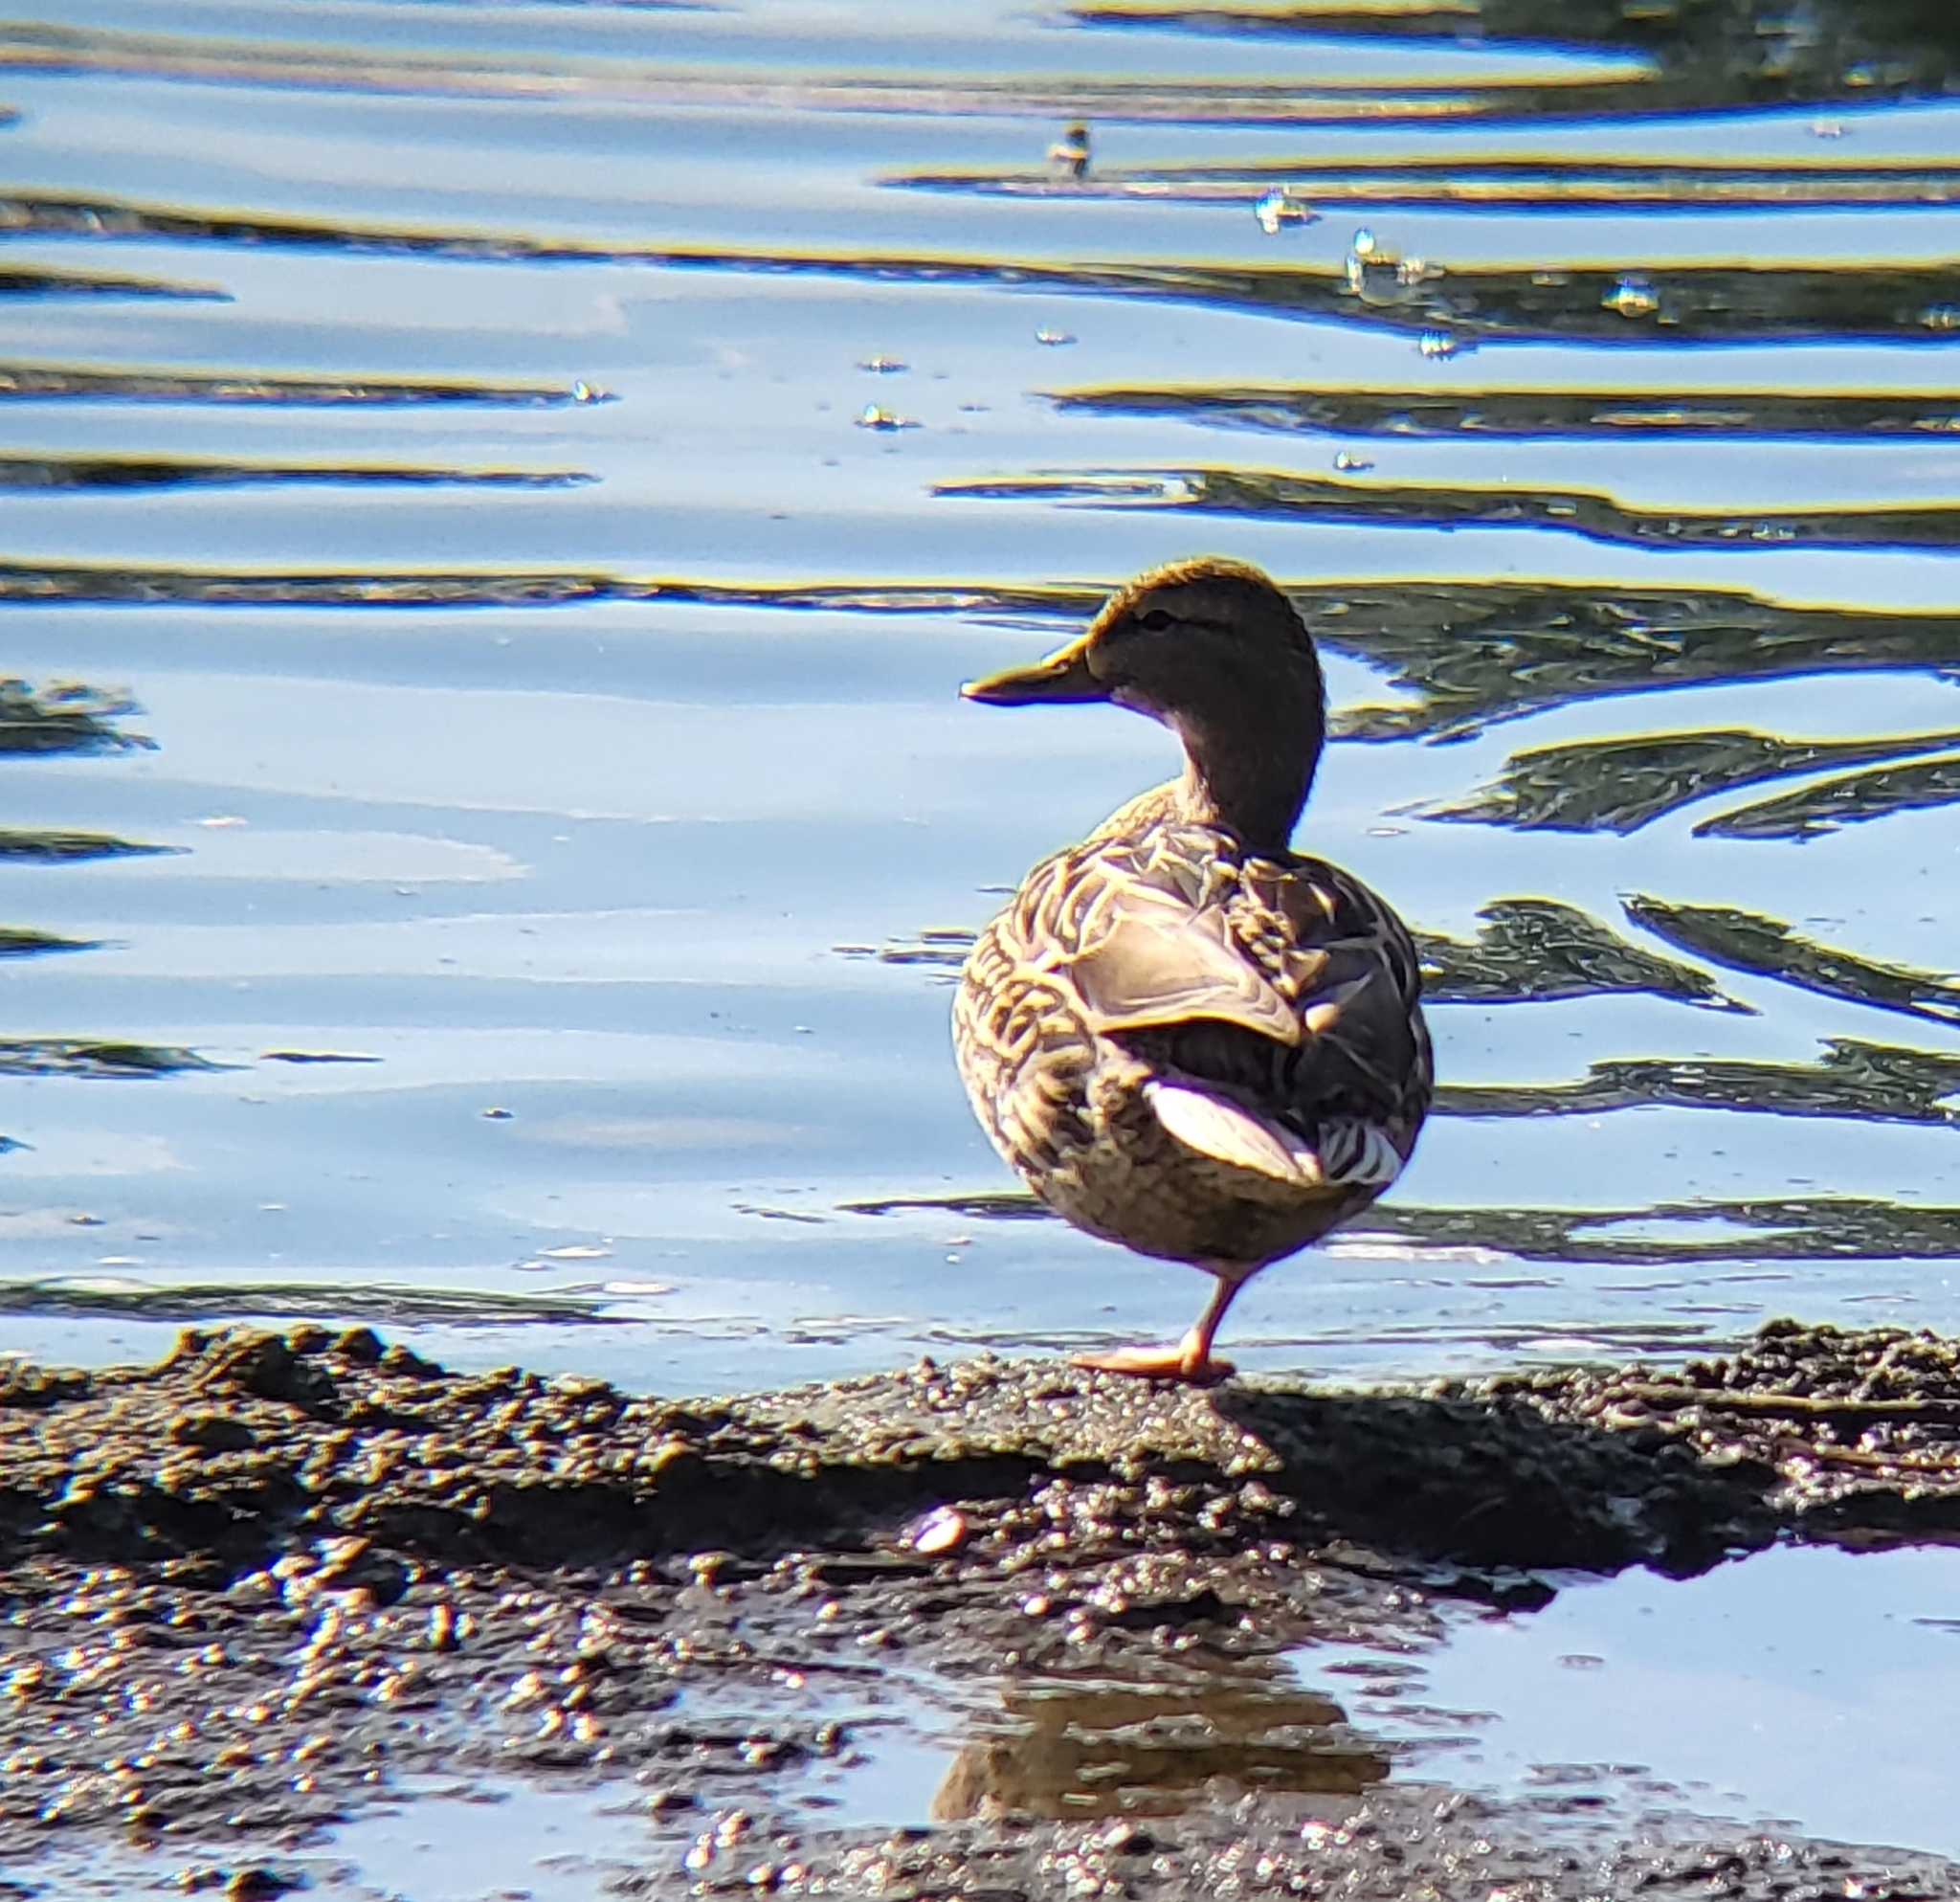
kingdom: Animalia
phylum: Chordata
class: Aves
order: Anseriformes
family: Anatidae
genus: Anas
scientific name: Anas platyrhynchos
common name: Mallard
